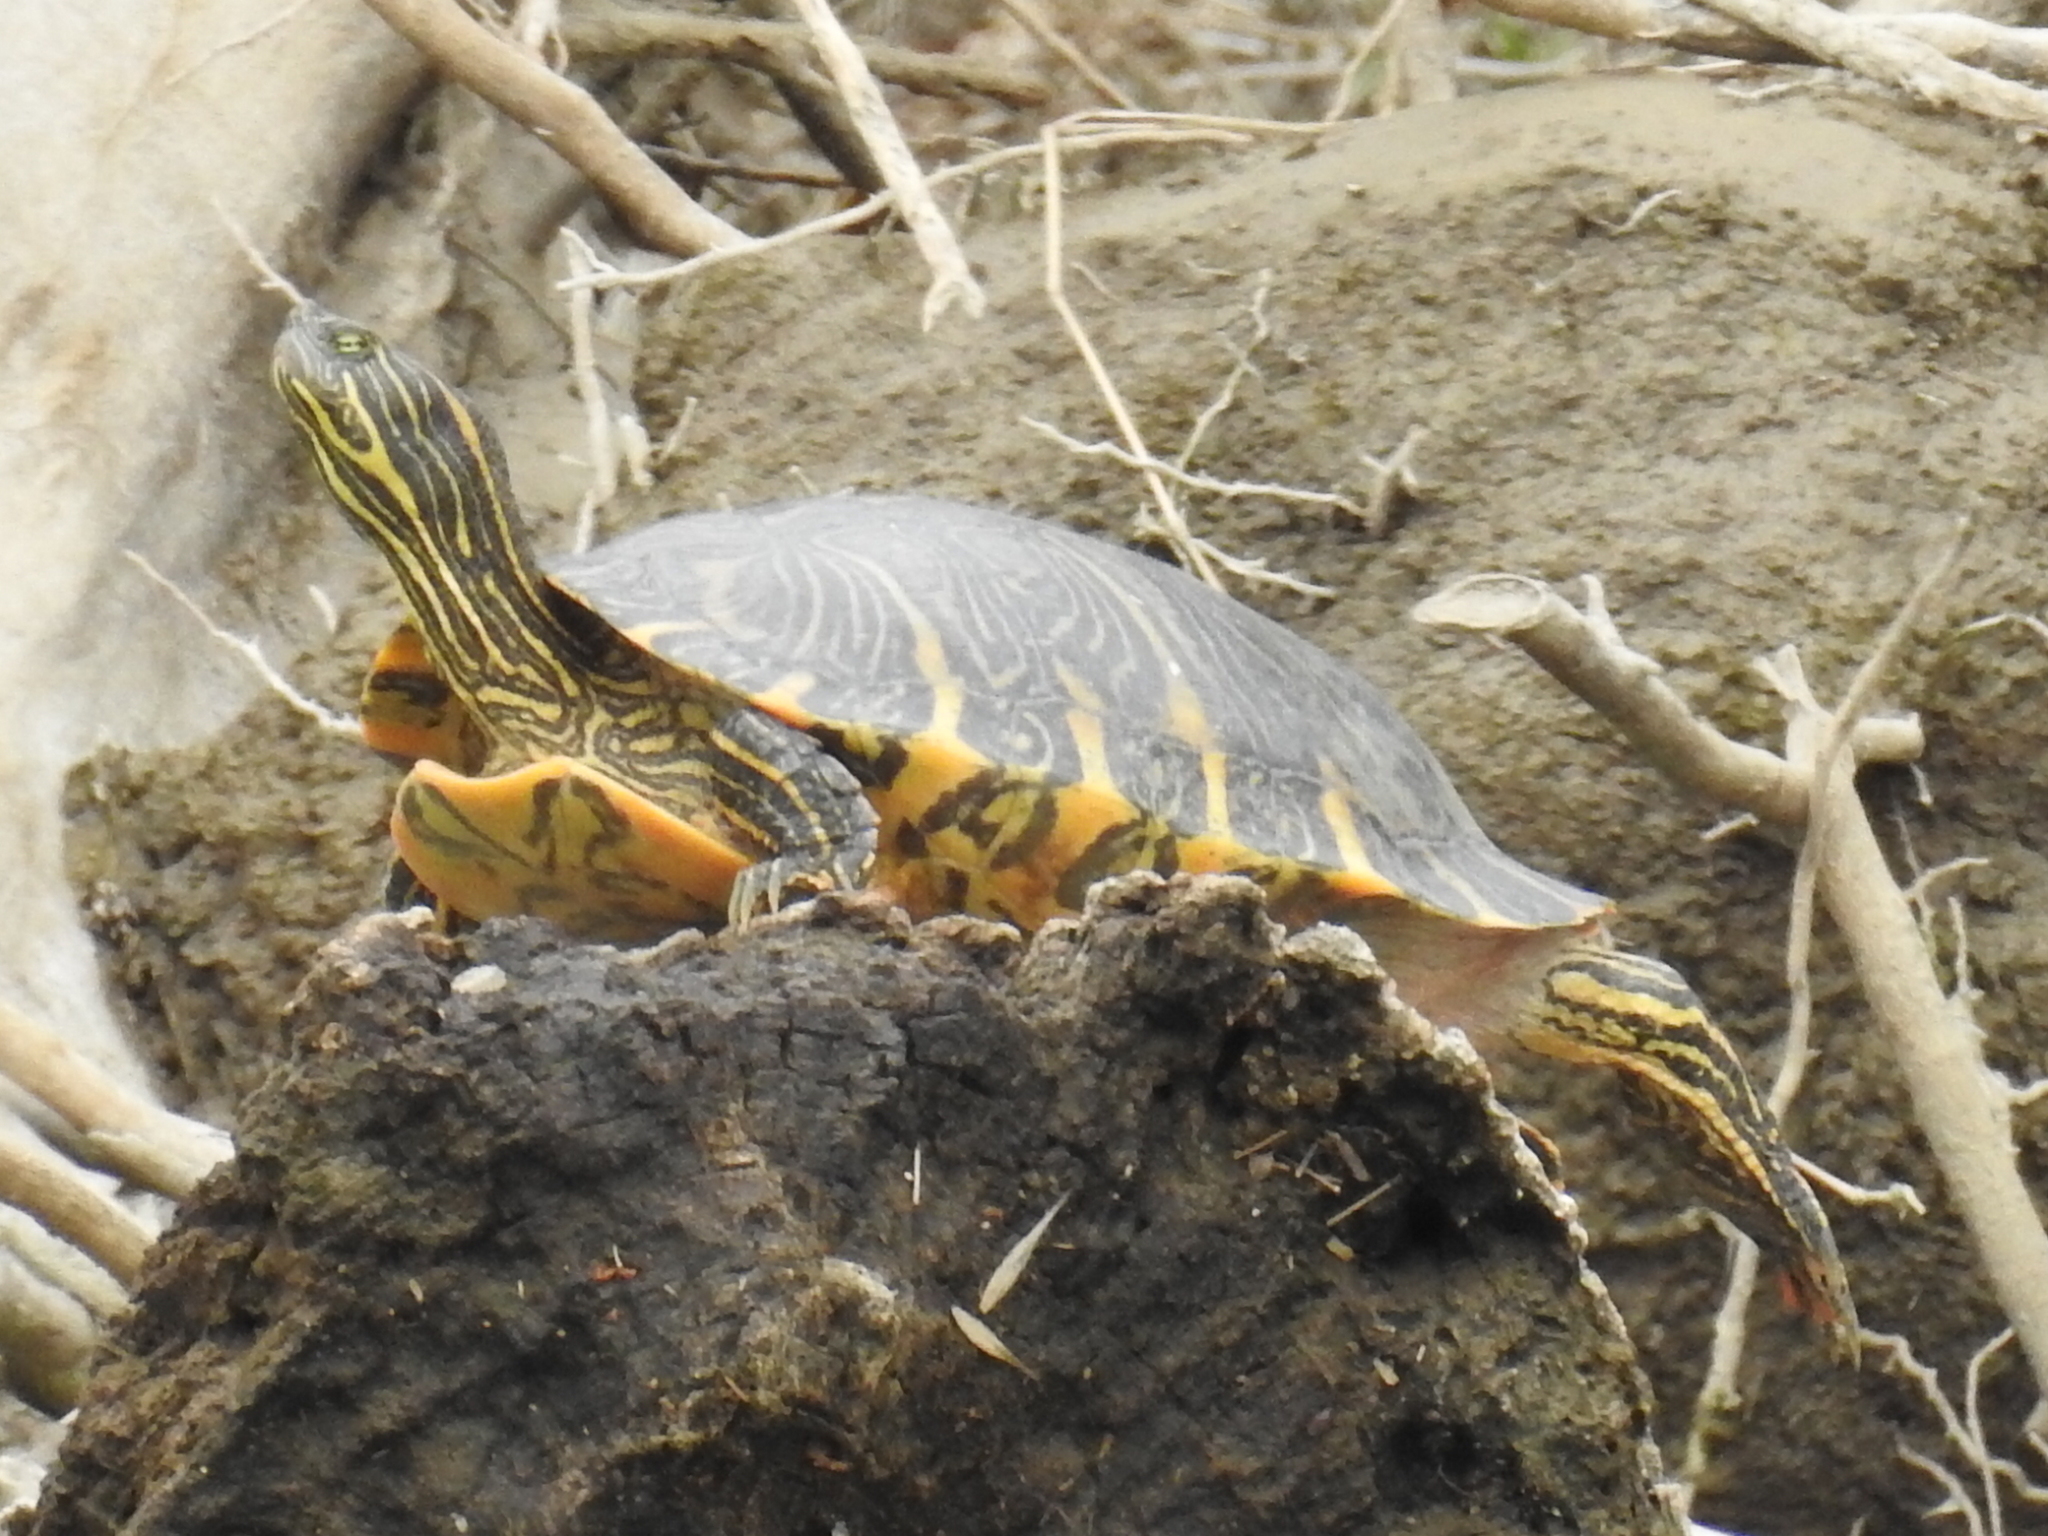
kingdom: Animalia
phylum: Chordata
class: Testudines
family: Emydidae
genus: Pseudemys
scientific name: Pseudemys concinna
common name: Eastern river cooter
